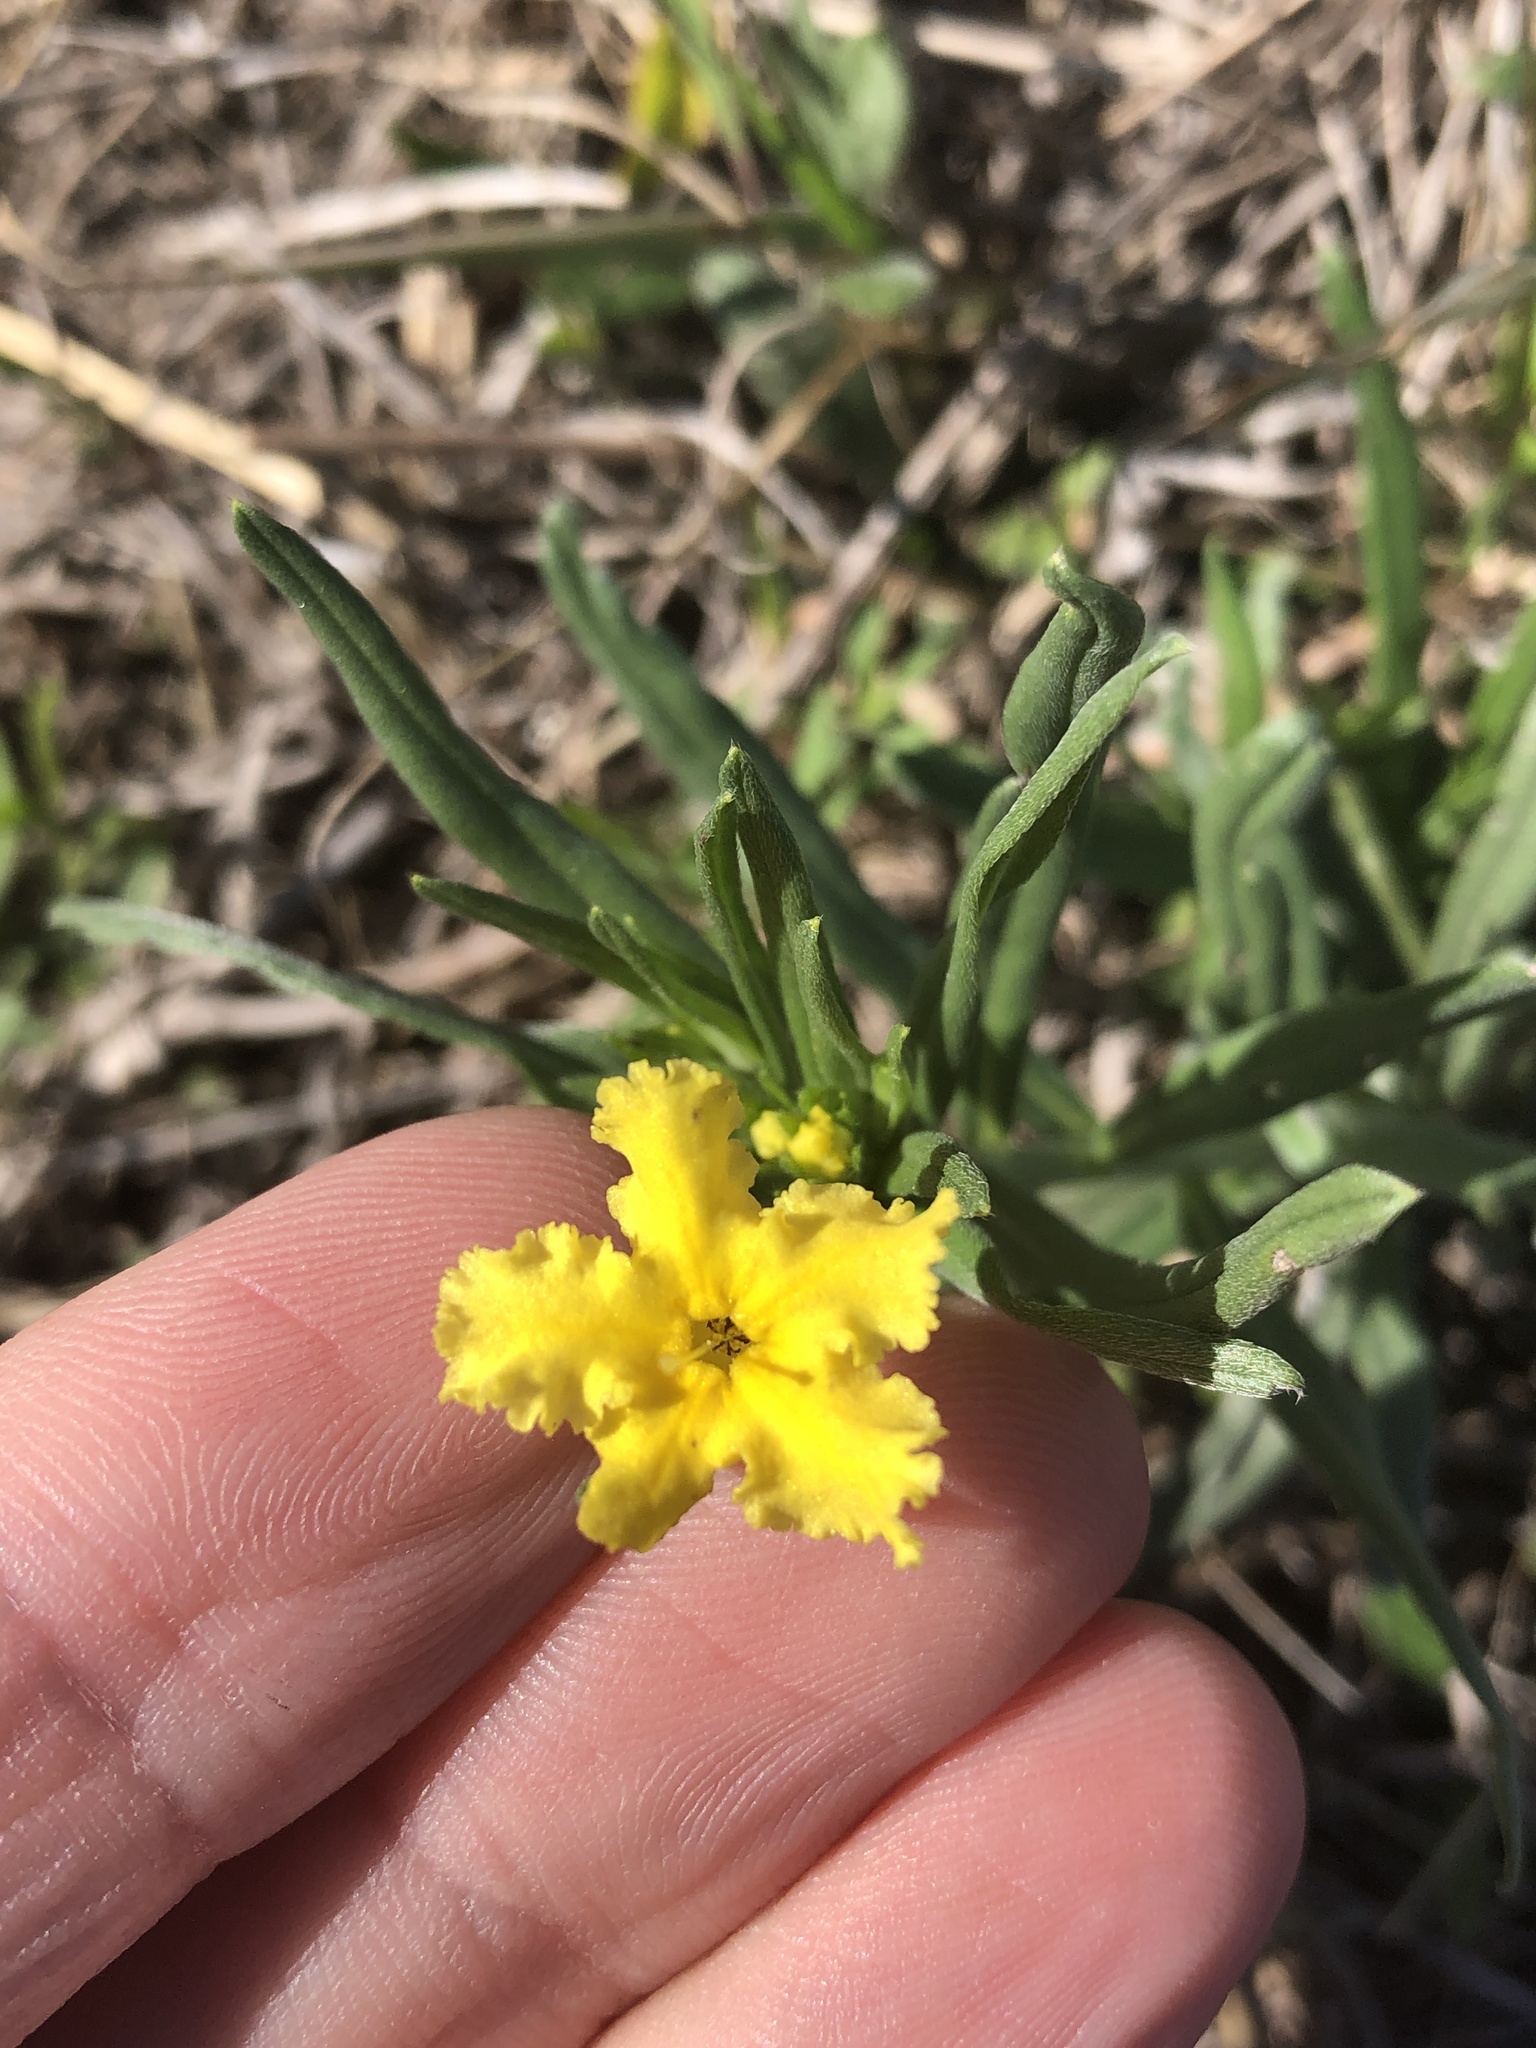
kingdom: Plantae
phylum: Tracheophyta
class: Magnoliopsida
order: Boraginales
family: Boraginaceae
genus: Lithospermum
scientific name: Lithospermum incisum
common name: Fringed gromwell
